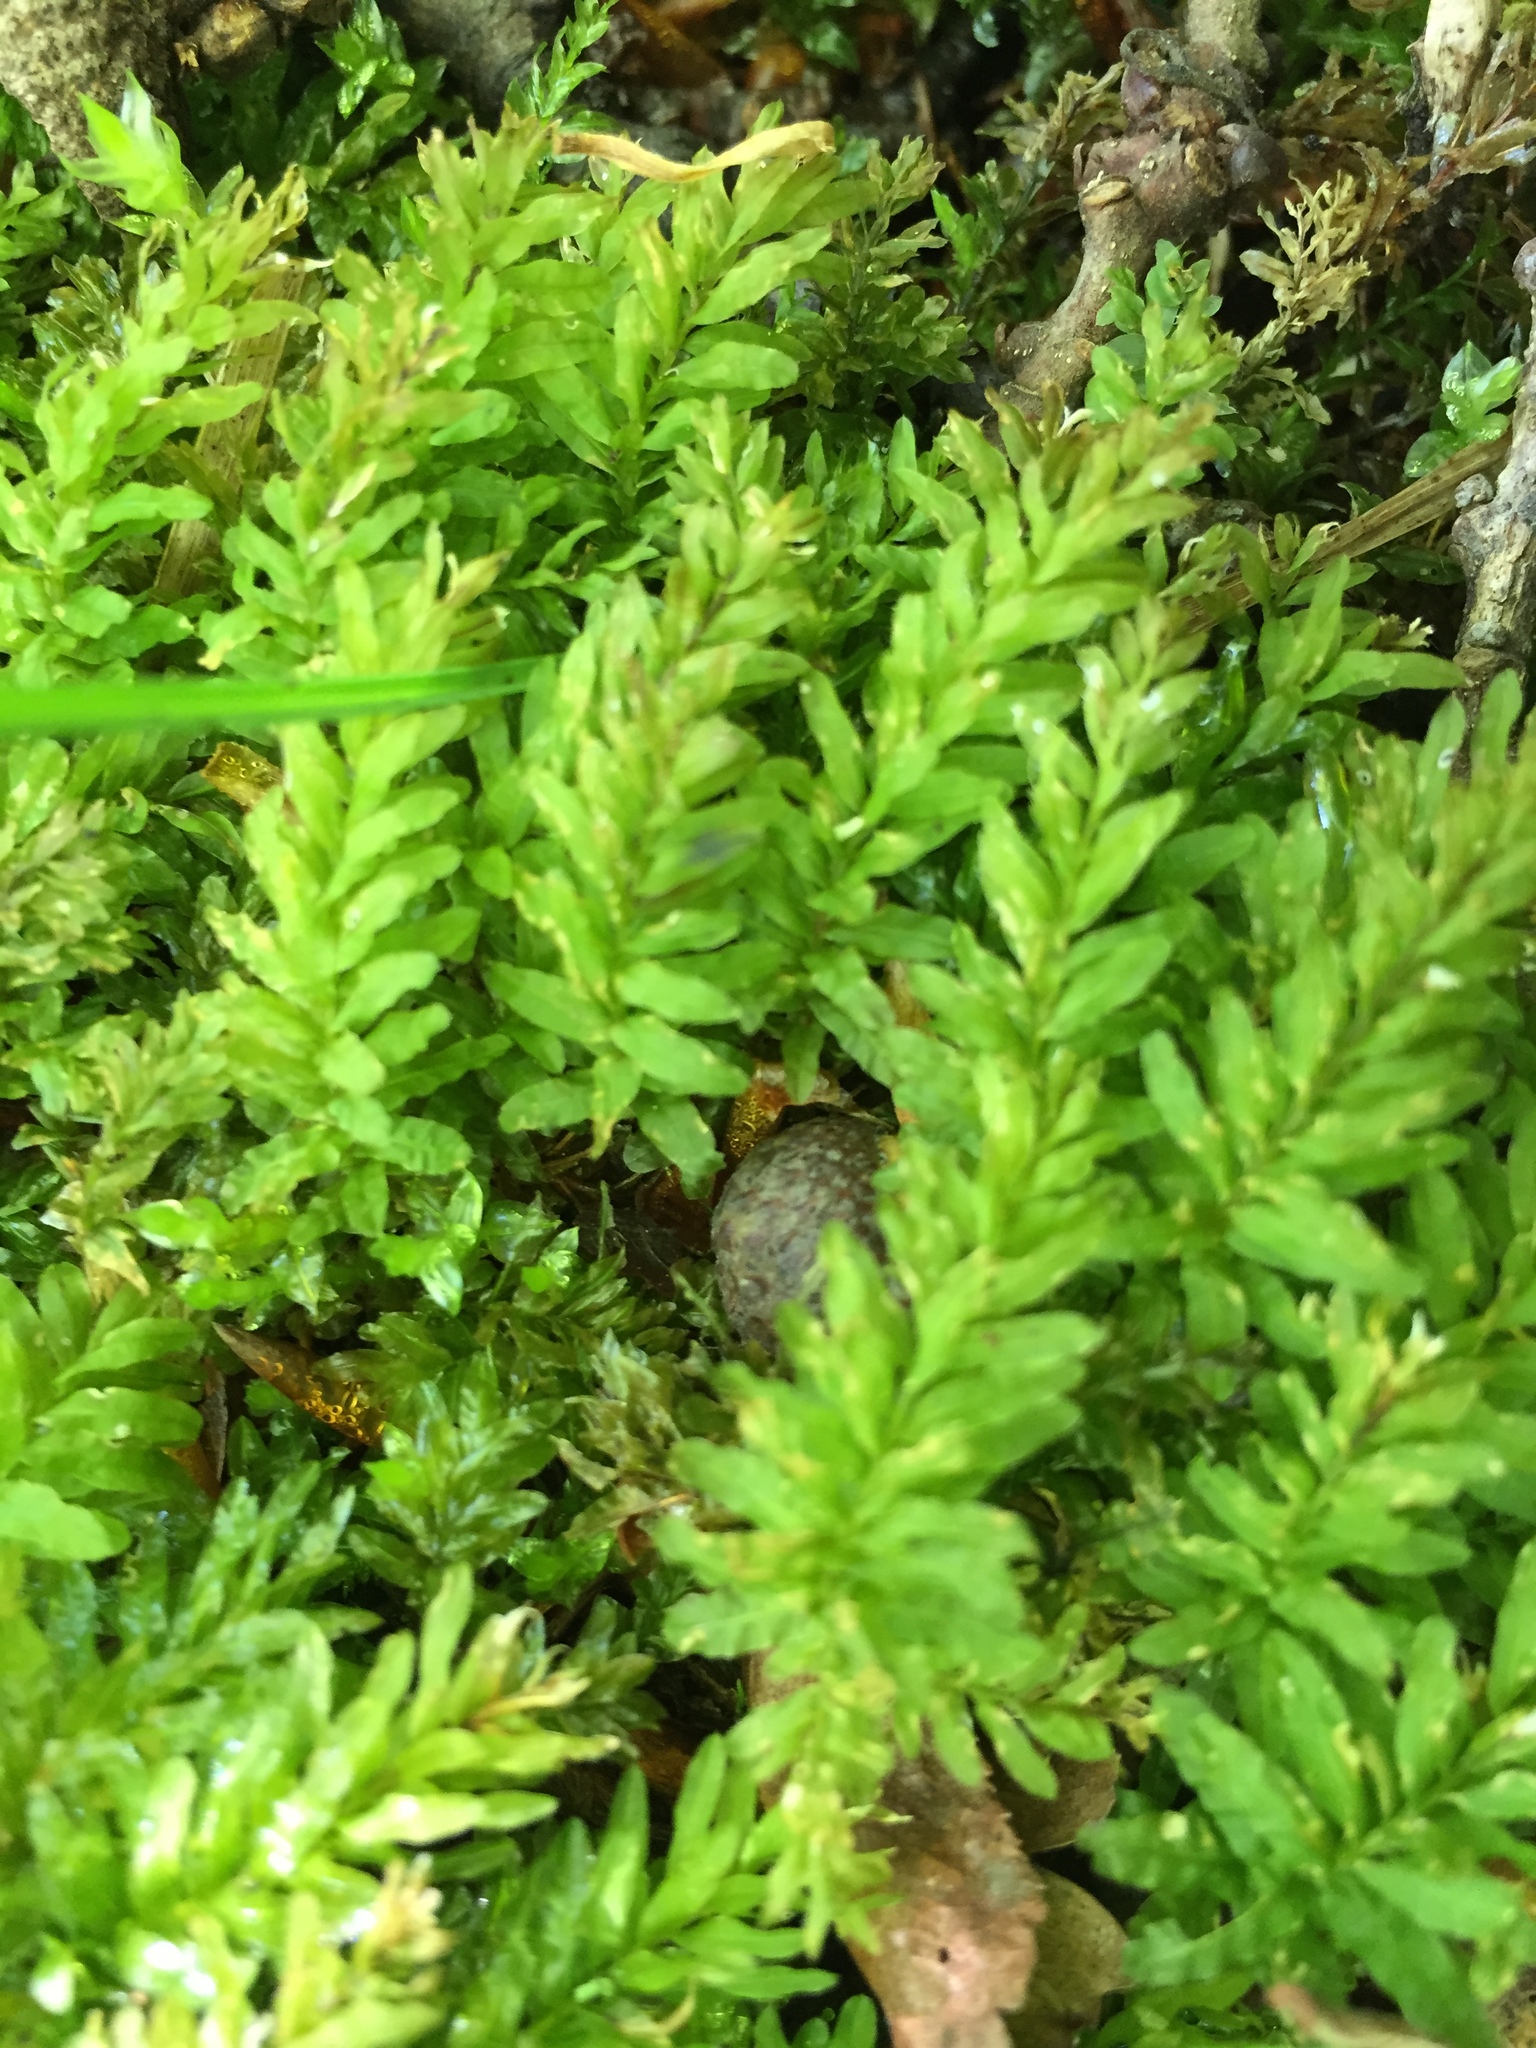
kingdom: Plantae
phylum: Bryophyta
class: Bryopsida
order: Bryales
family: Mniaceae
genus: Plagiomnium
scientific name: Plagiomnium undulatum
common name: Hart's-tongue thyme-moss
